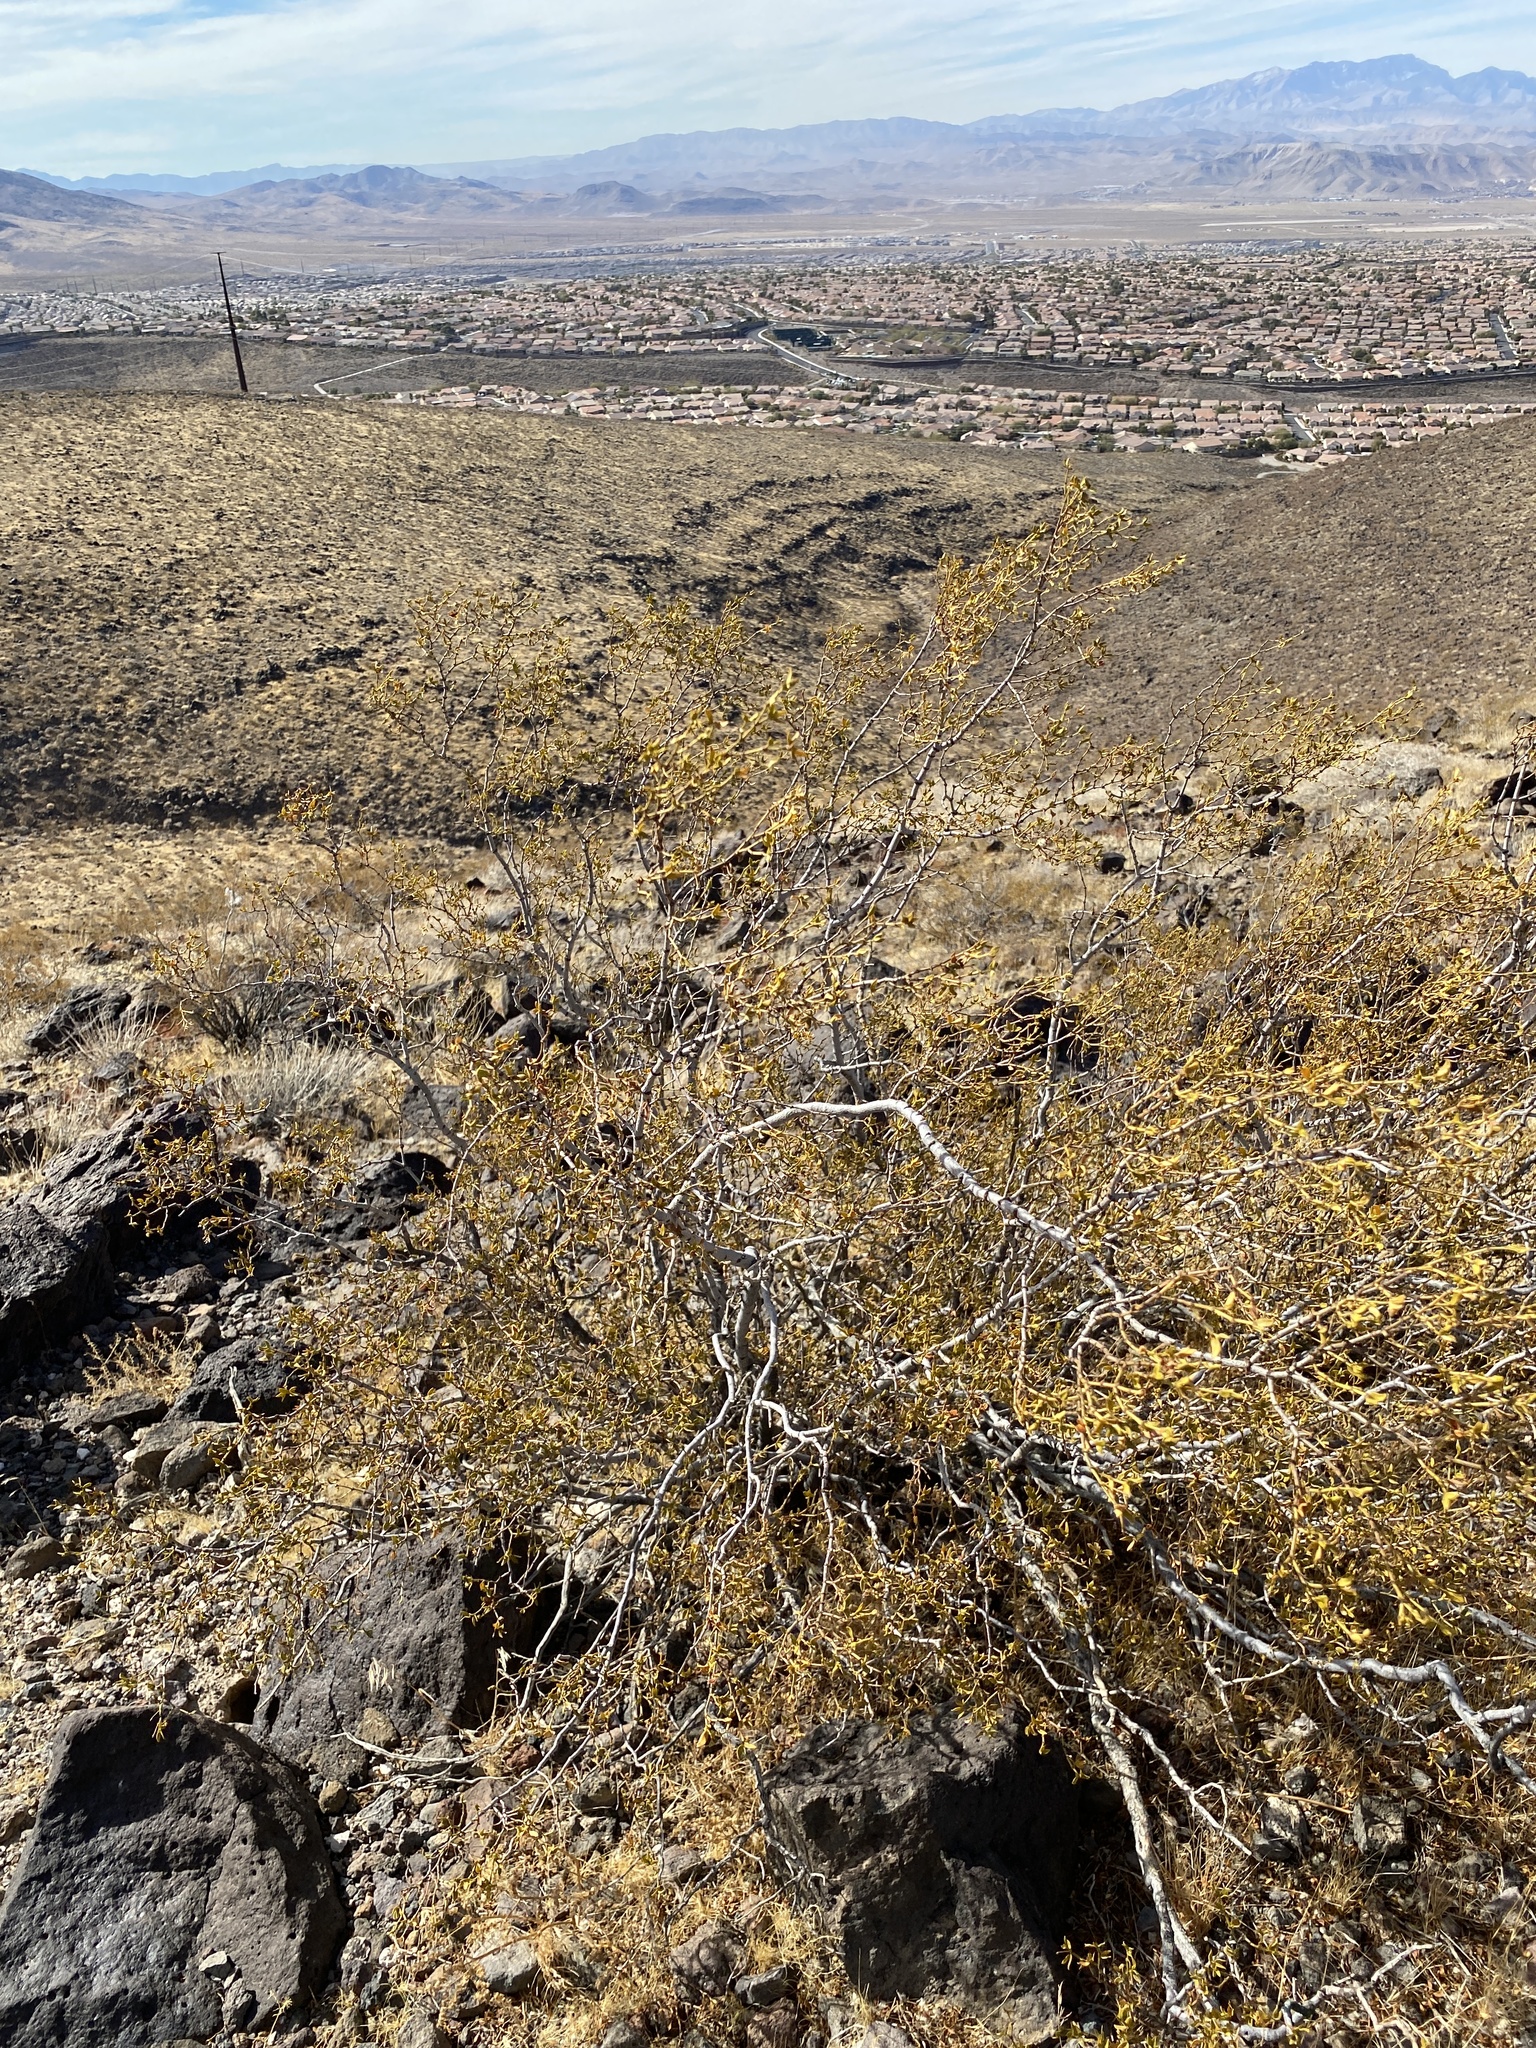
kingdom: Plantae
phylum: Tracheophyta
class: Magnoliopsida
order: Zygophyllales
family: Zygophyllaceae
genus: Larrea
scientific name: Larrea tridentata
